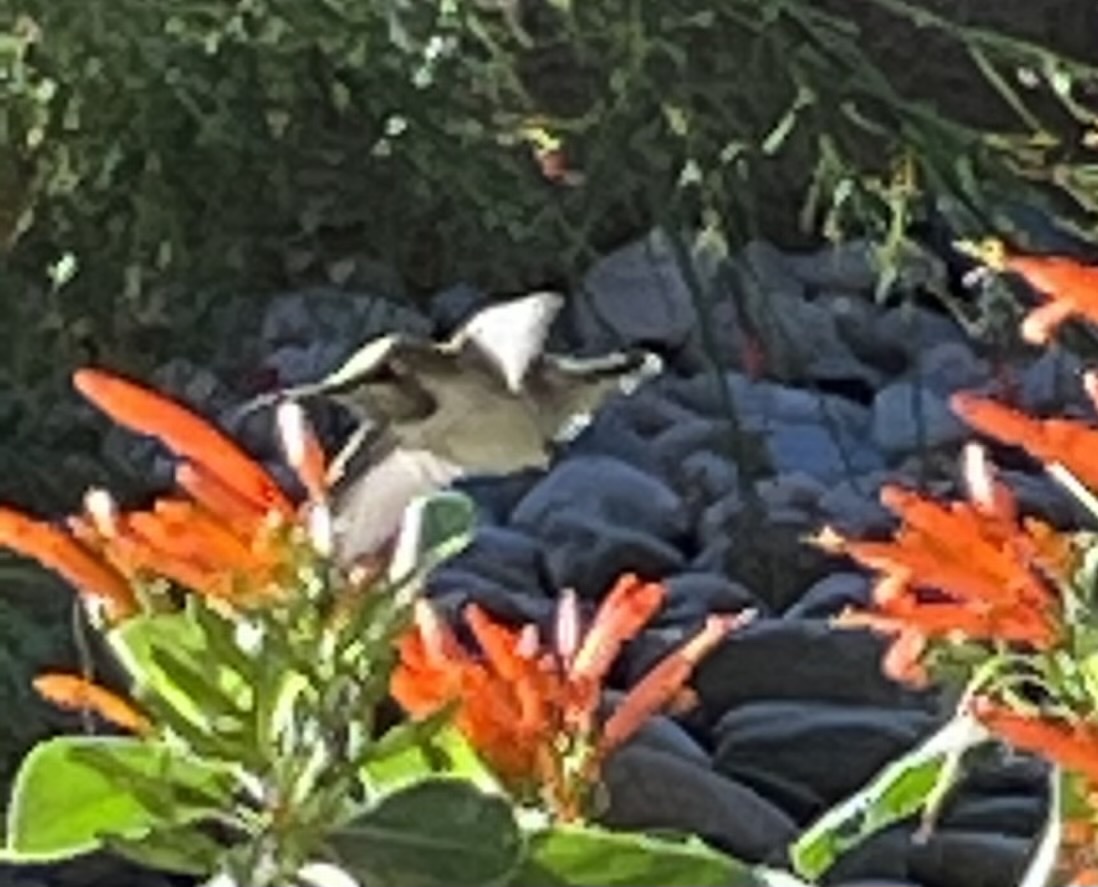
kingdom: Animalia
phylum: Chordata
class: Aves
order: Apodiformes
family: Trochilidae
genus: Calypte
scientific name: Calypte costae
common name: Costa's hummingbird
